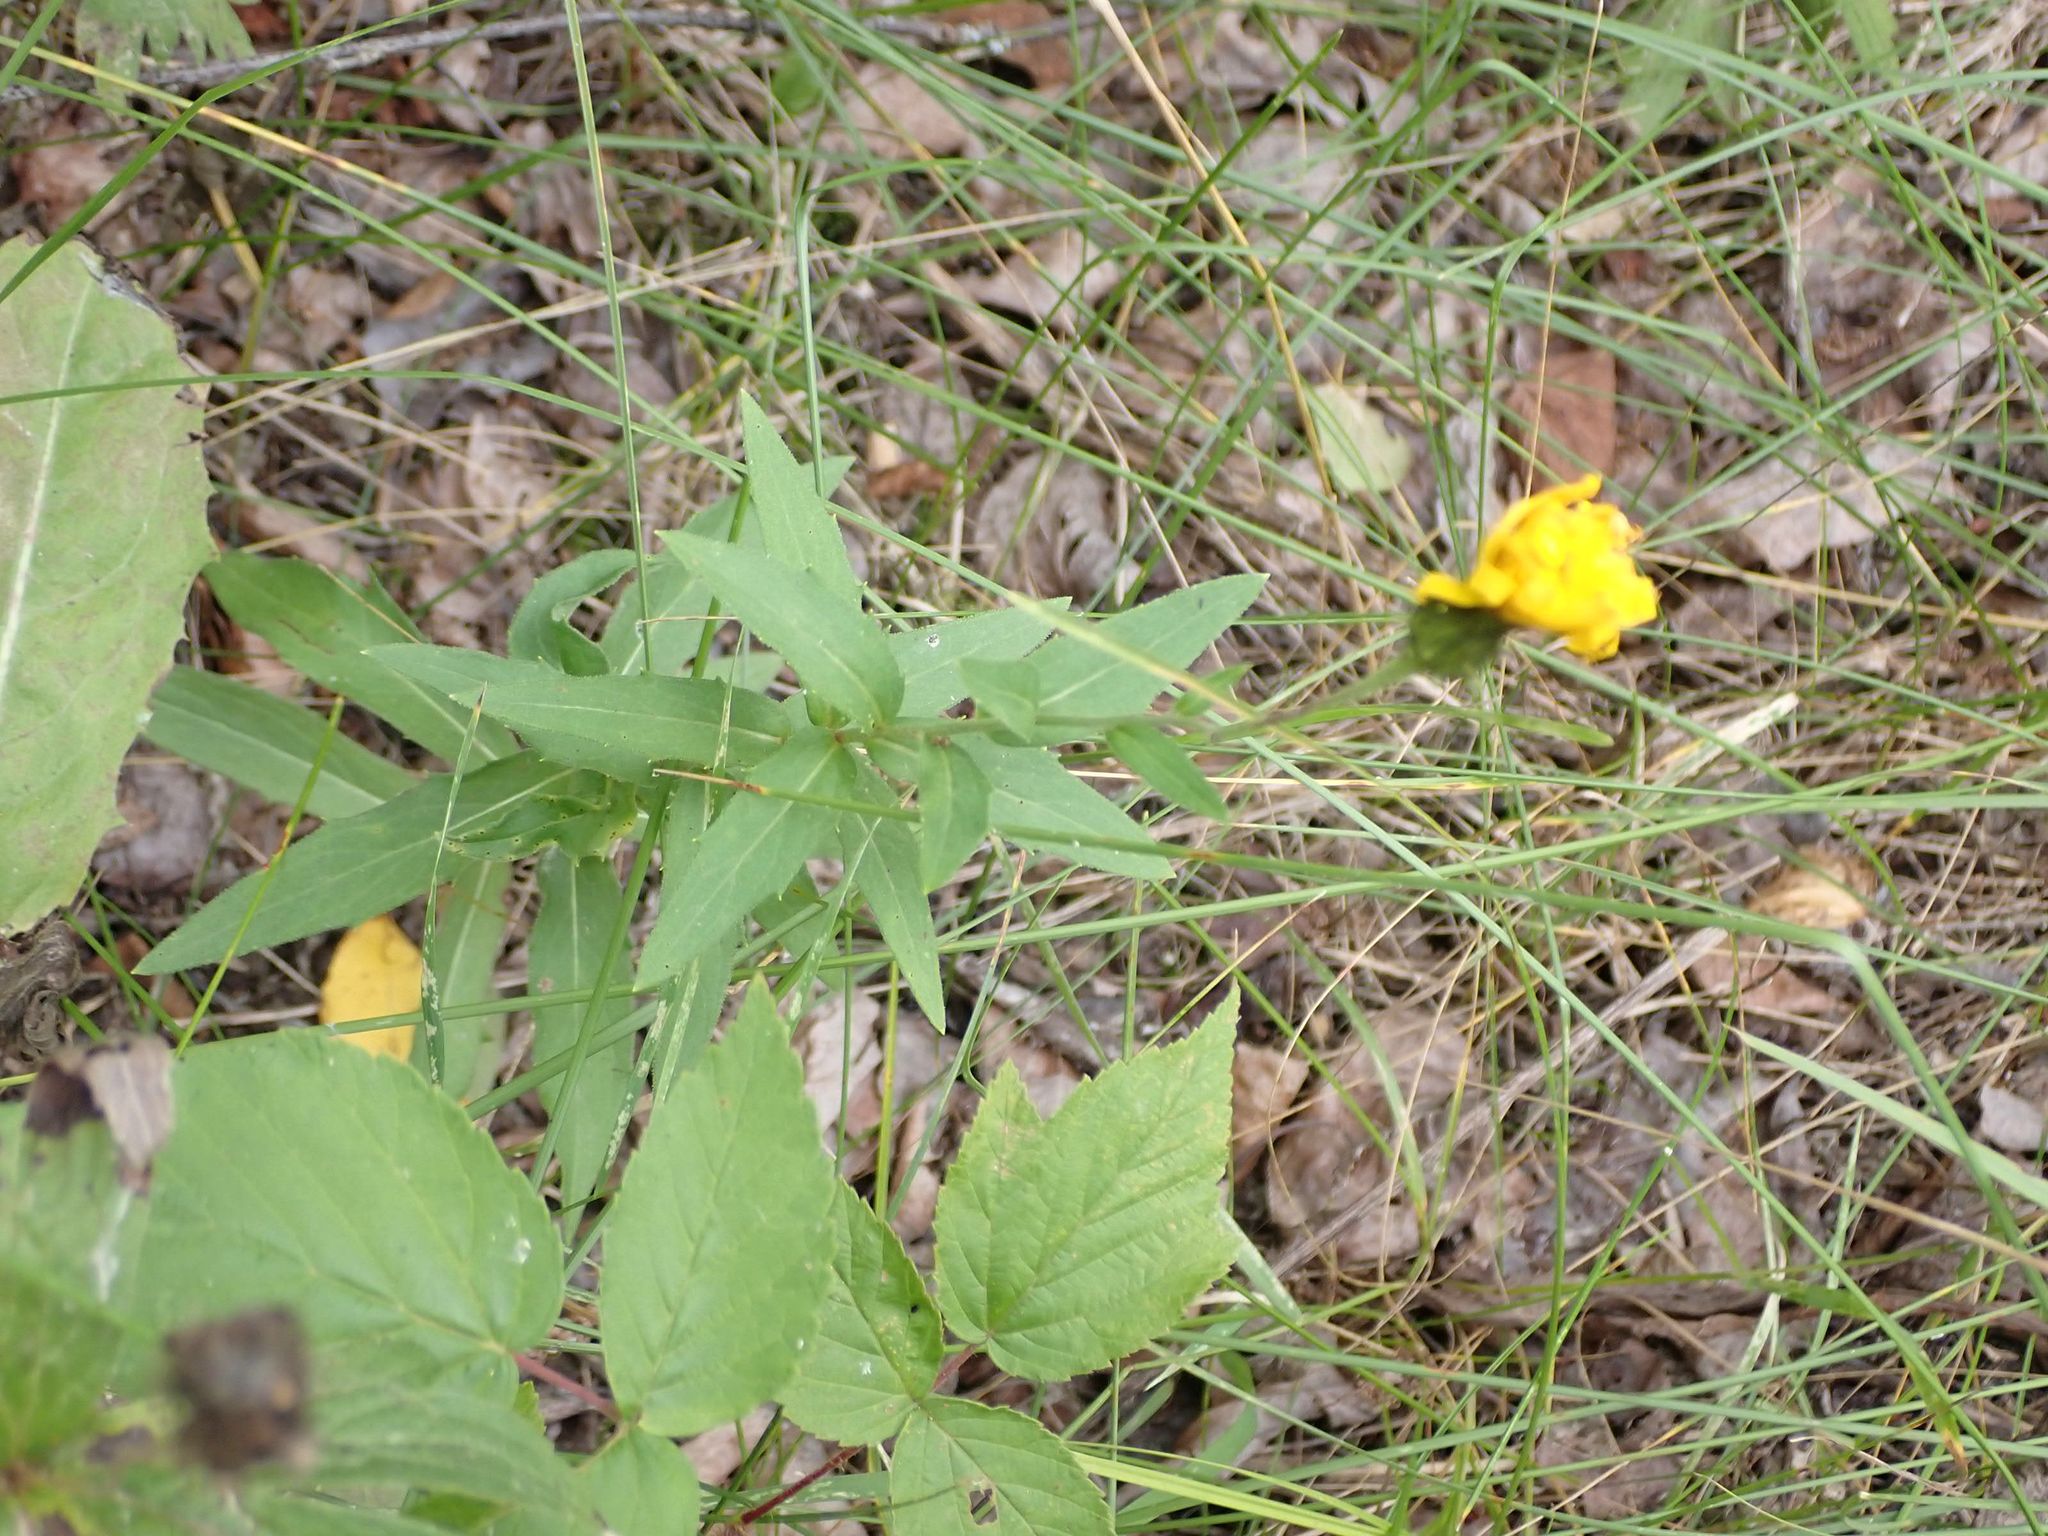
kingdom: Plantae
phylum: Tracheophyta
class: Magnoliopsida
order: Asterales
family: Asteraceae
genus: Hieracium
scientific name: Hieracium umbellatum
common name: Northern hawkweed
